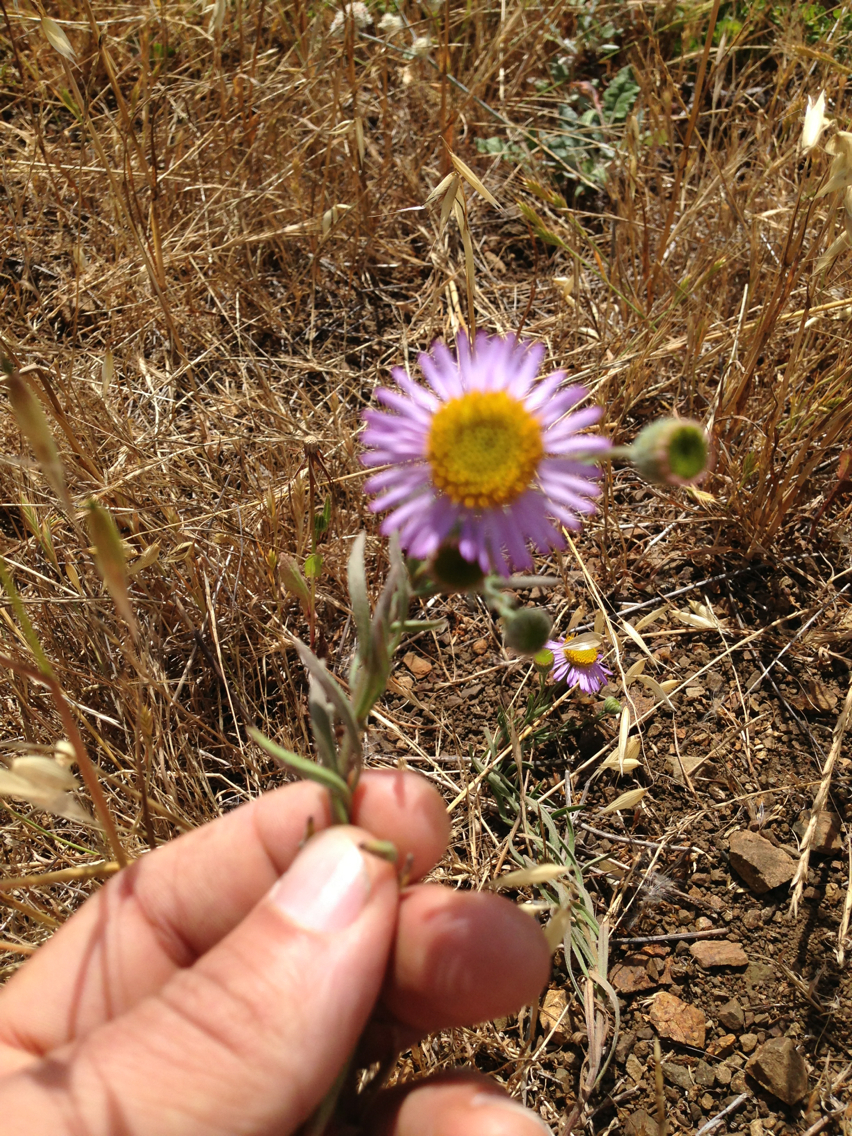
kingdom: Plantae
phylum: Tracheophyta
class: Magnoliopsida
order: Asterales
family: Asteraceae
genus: Erigeron
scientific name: Erigeron glaucus
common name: Seaside daisy
